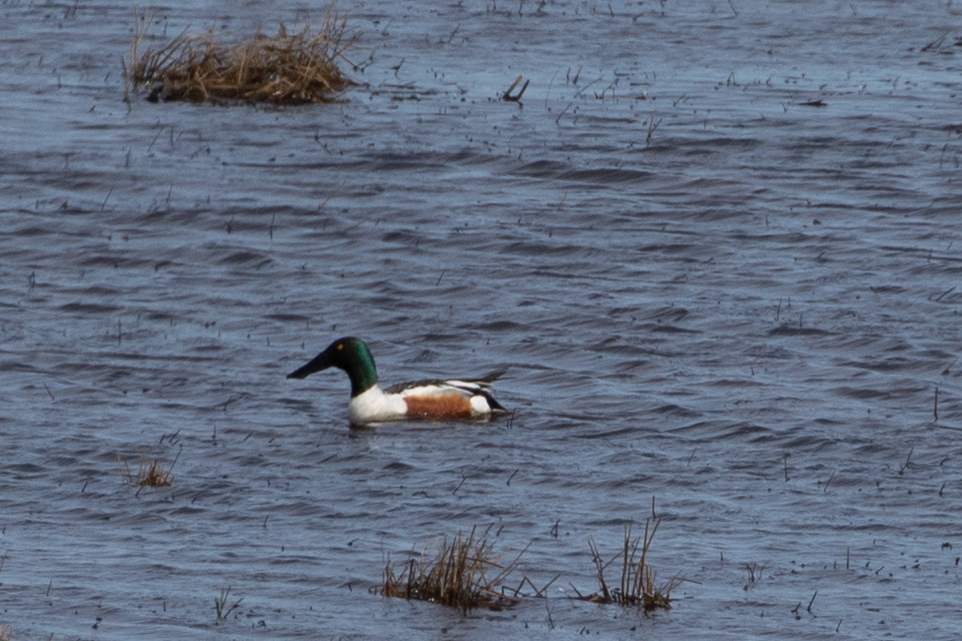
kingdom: Animalia
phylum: Chordata
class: Aves
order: Anseriformes
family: Anatidae
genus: Spatula
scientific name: Spatula clypeata
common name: Northern shoveler
